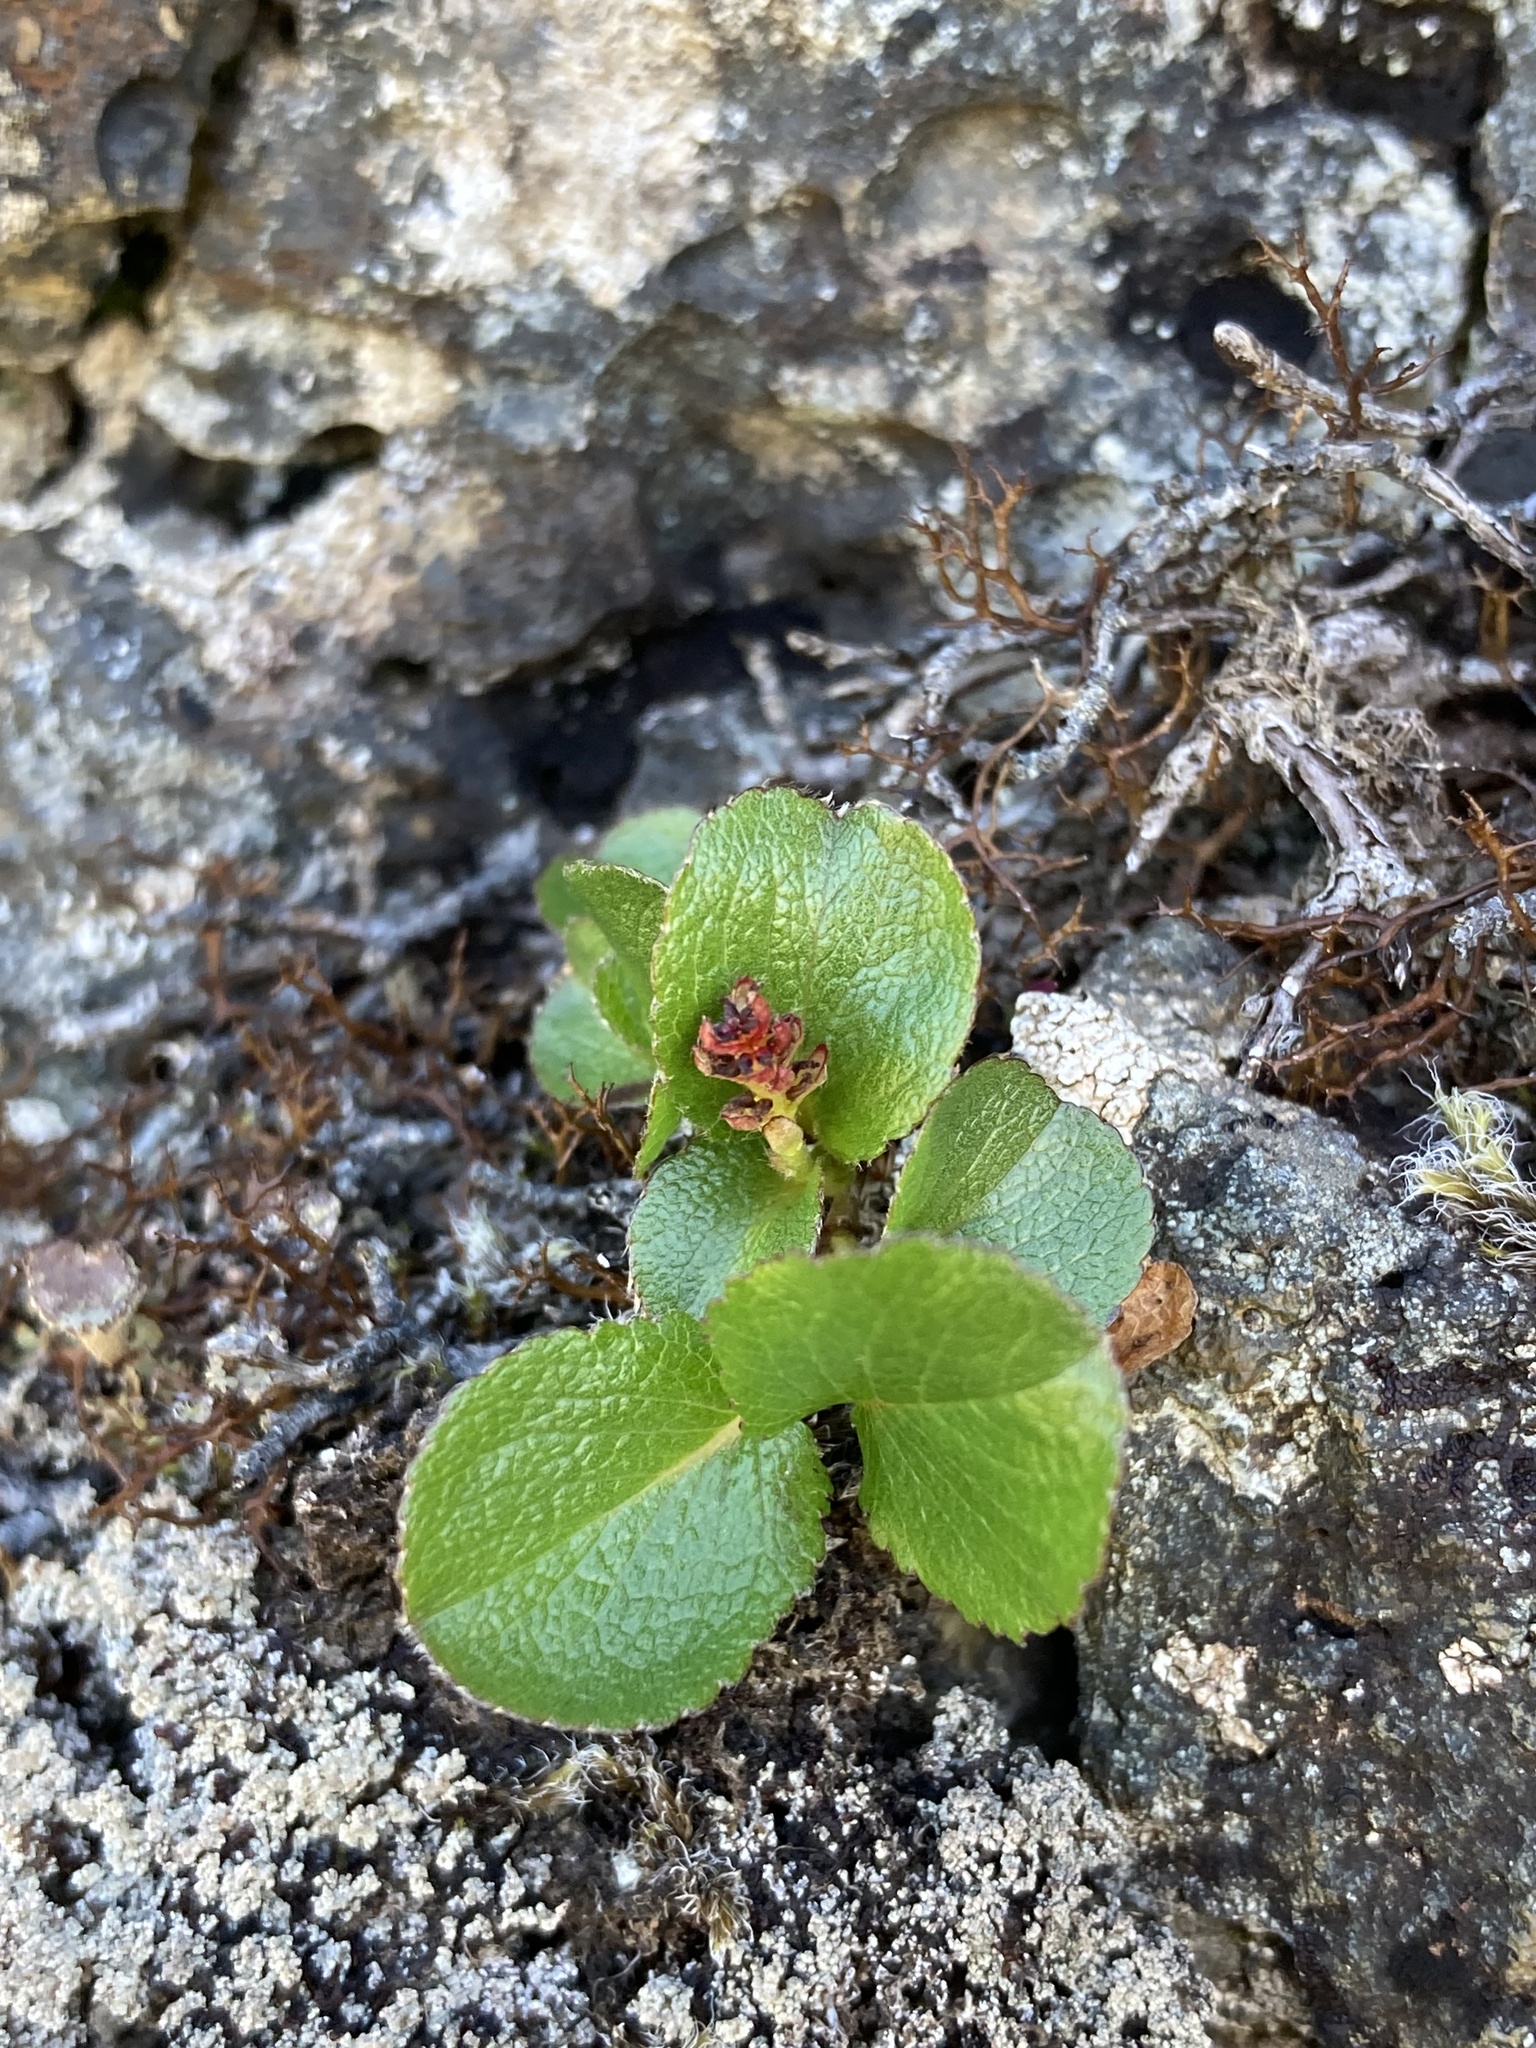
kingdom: Plantae
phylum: Tracheophyta
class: Magnoliopsida
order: Malpighiales
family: Salicaceae
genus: Salix
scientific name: Salix herbacea
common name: Dwarf willow
